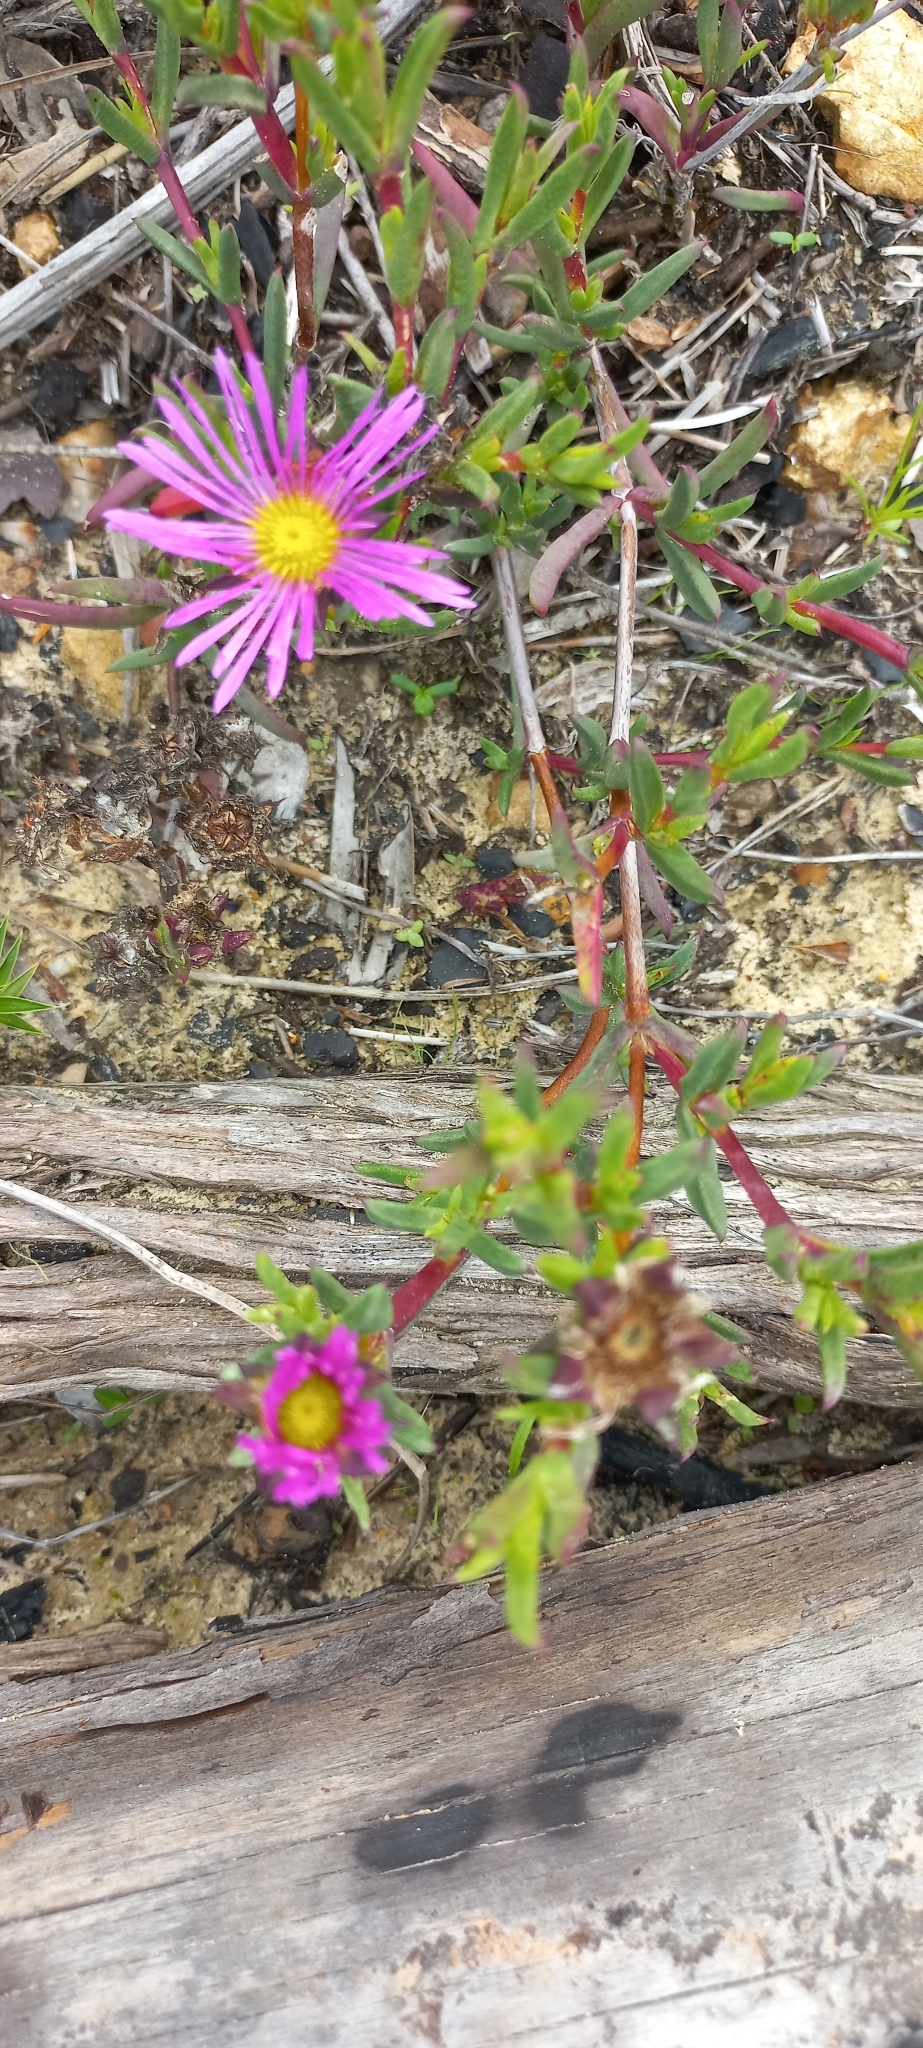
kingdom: Plantae
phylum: Tracheophyta
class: Magnoliopsida
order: Caryophyllales
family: Aizoaceae
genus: Erepsia
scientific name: Erepsia anceps
